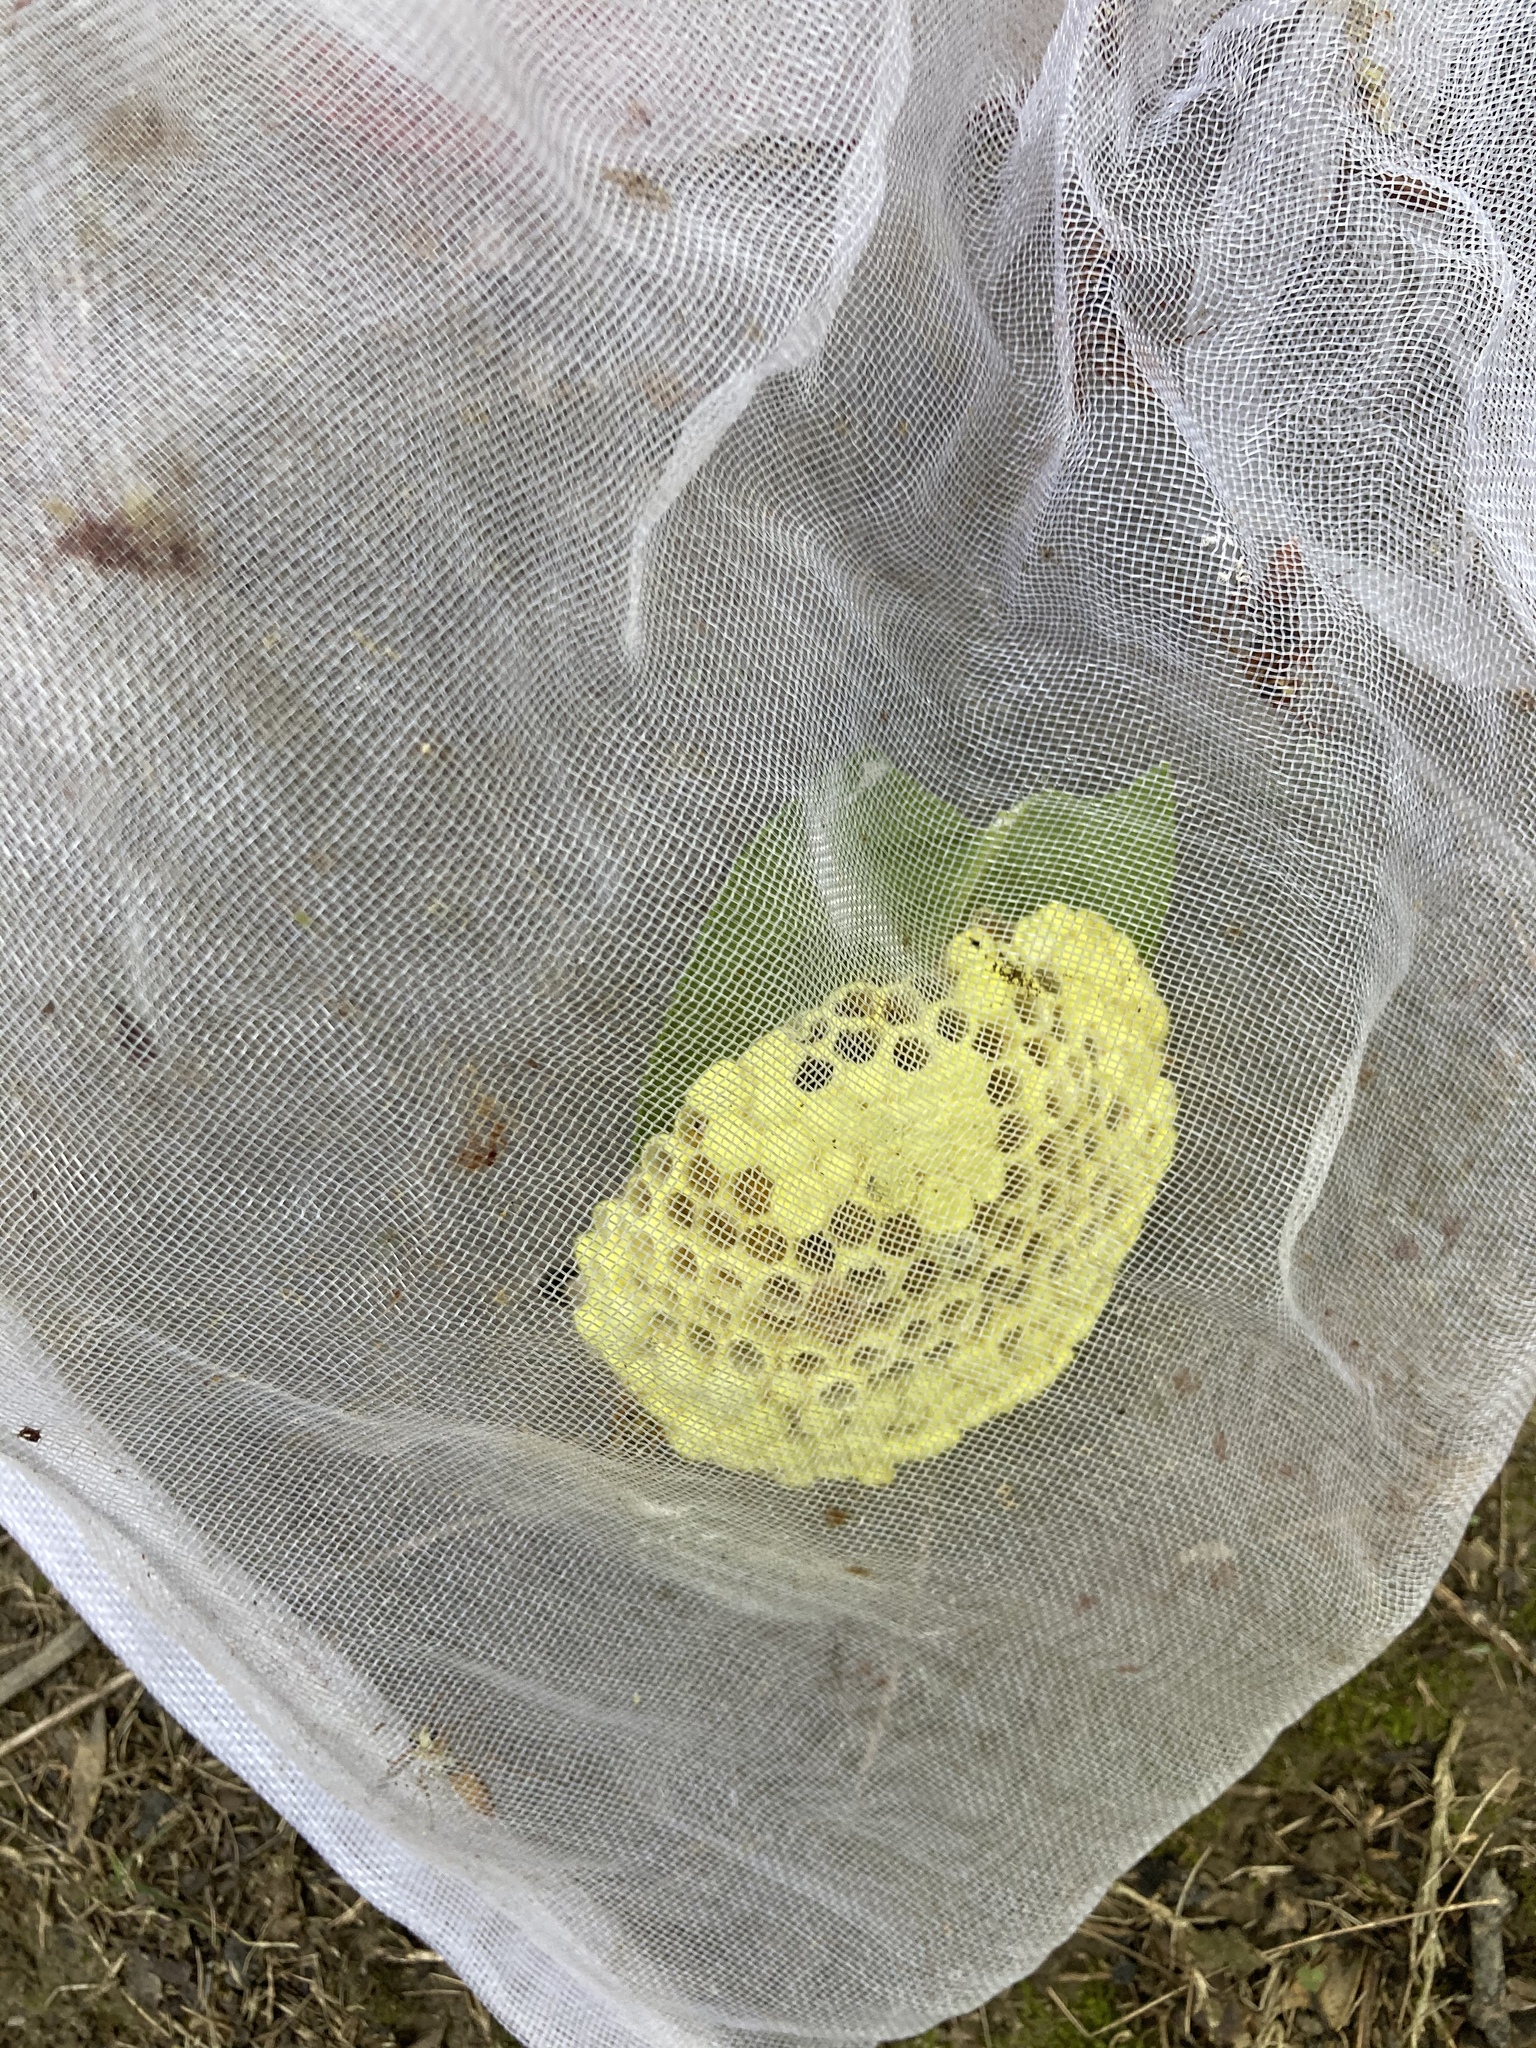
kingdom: Animalia
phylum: Arthropoda
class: Insecta
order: Hymenoptera
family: Eumenidae
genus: Polistes
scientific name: Polistes takasagonus
